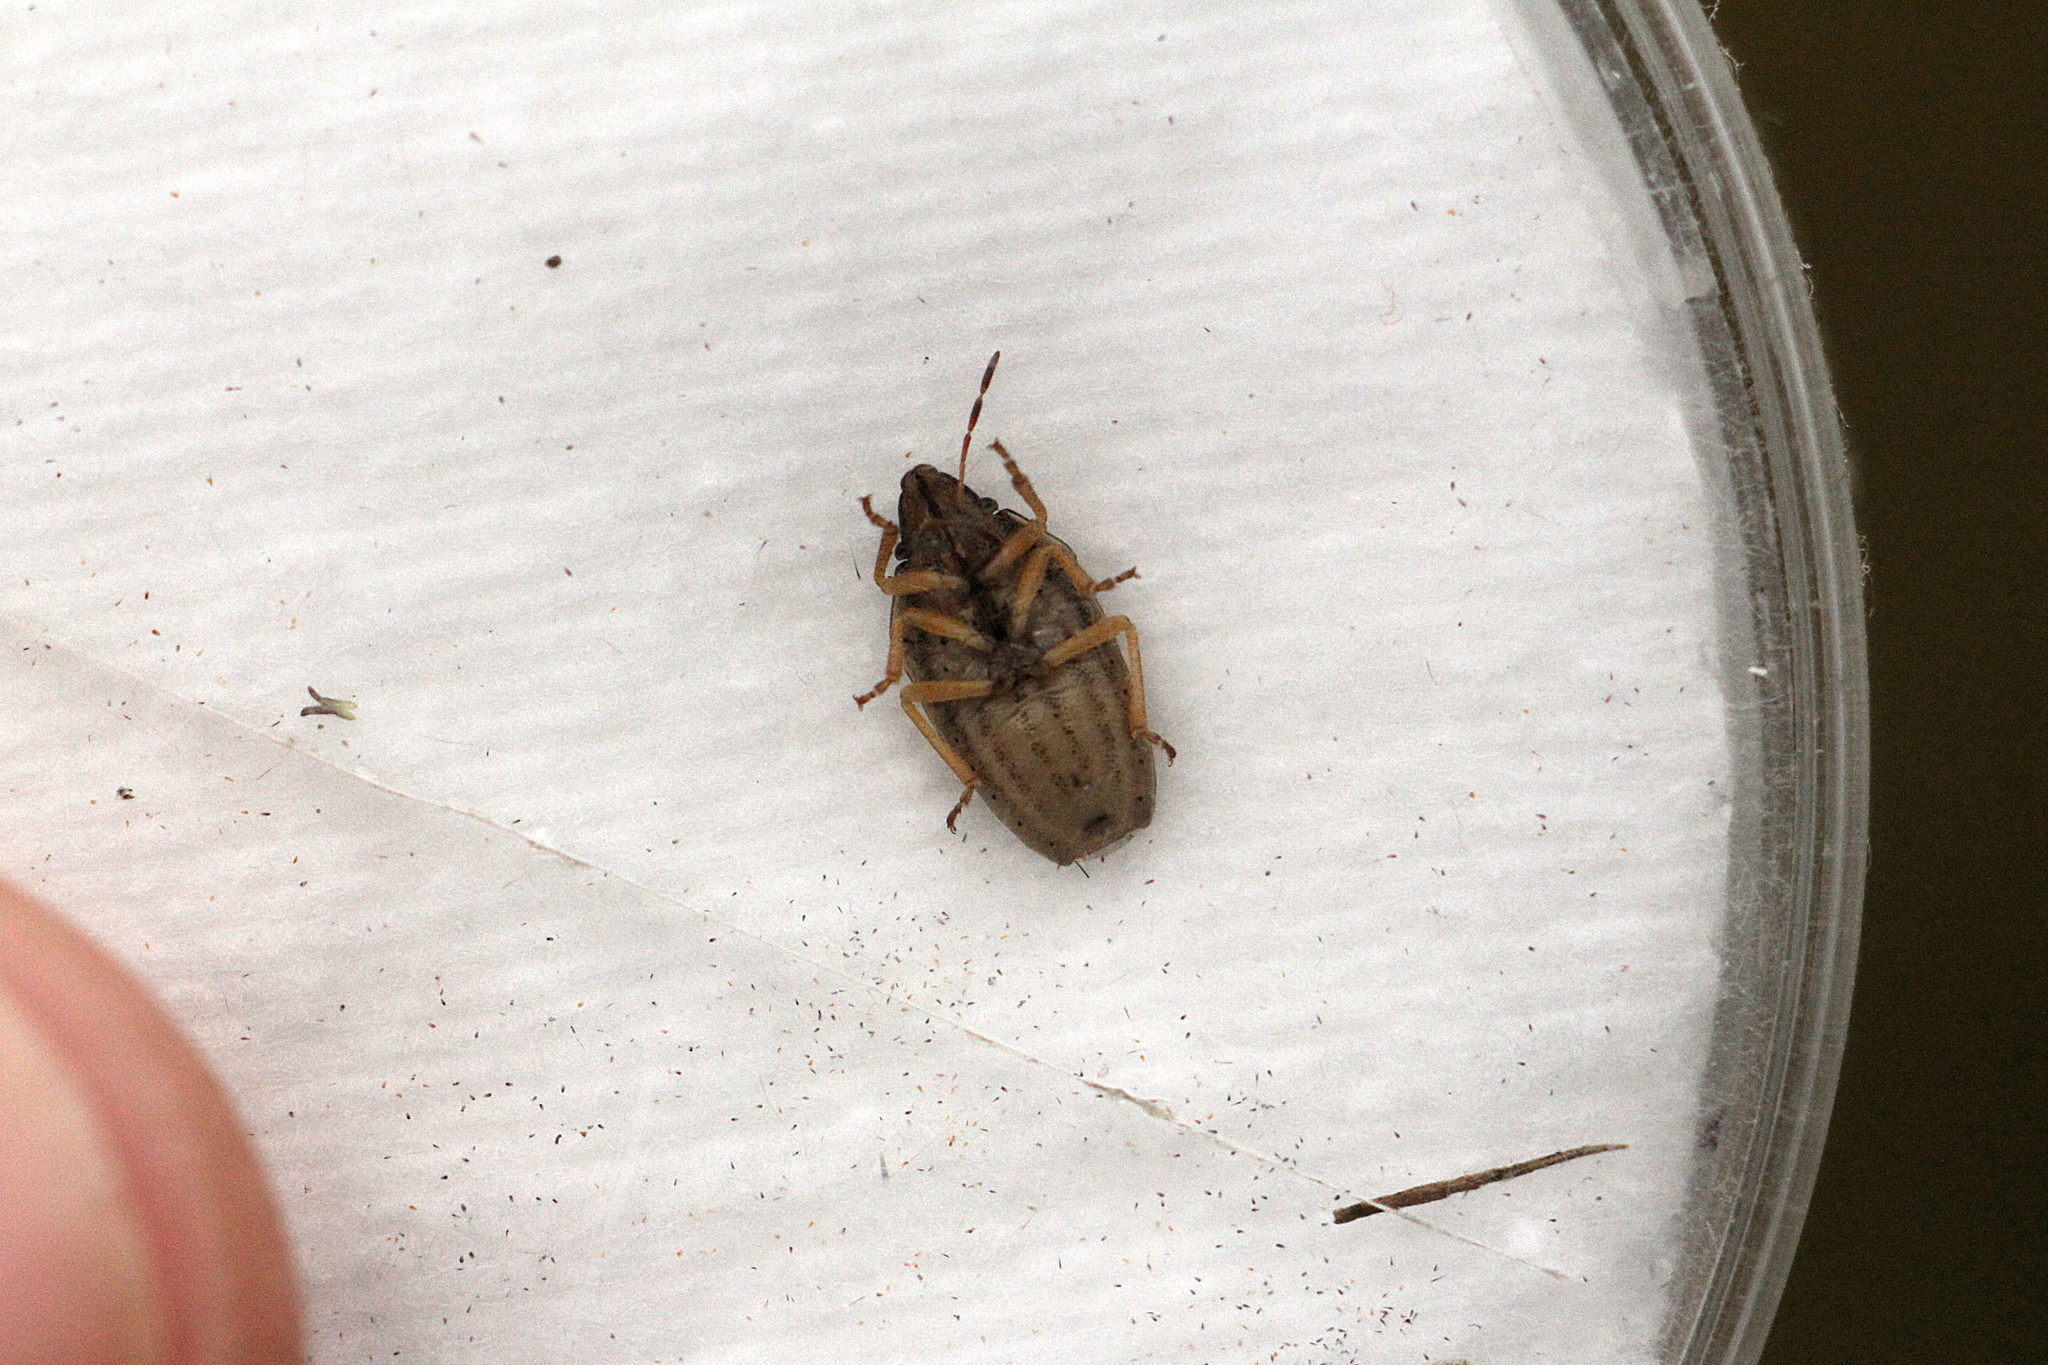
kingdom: Animalia
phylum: Arthropoda
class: Insecta
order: Hemiptera
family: Pentatomidae
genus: Aelia
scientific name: Aelia klugii
